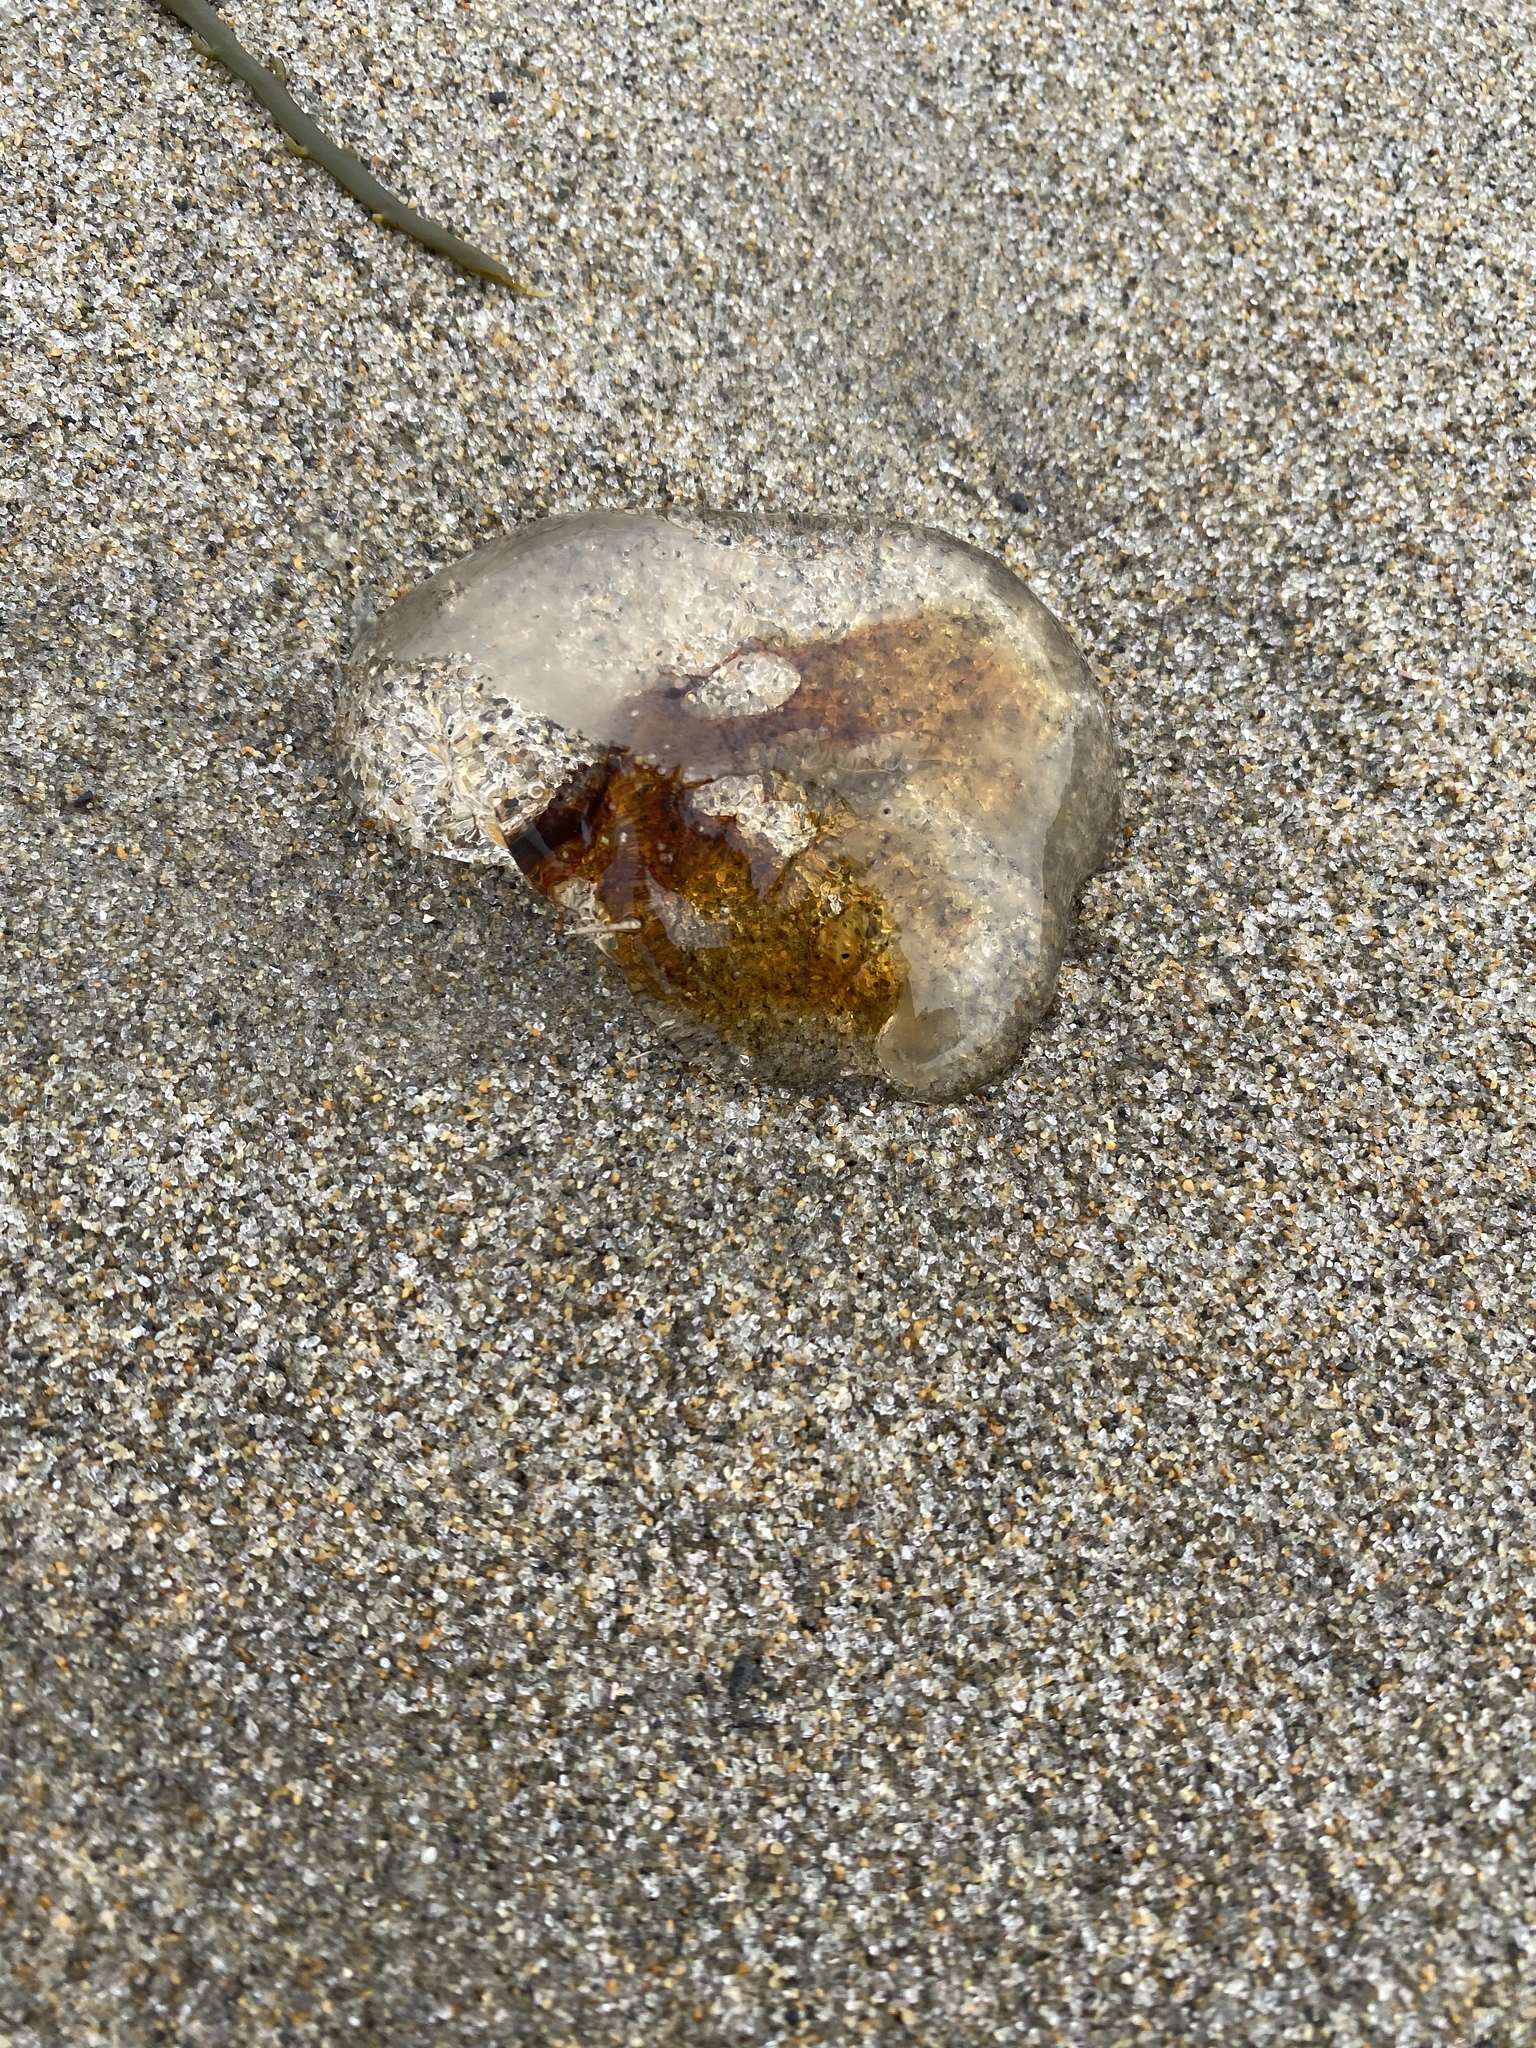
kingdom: Animalia
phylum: Cnidaria
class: Scyphozoa
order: Semaeostomeae
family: Cyaneidae
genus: Cyanea
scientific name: Cyanea fulva
